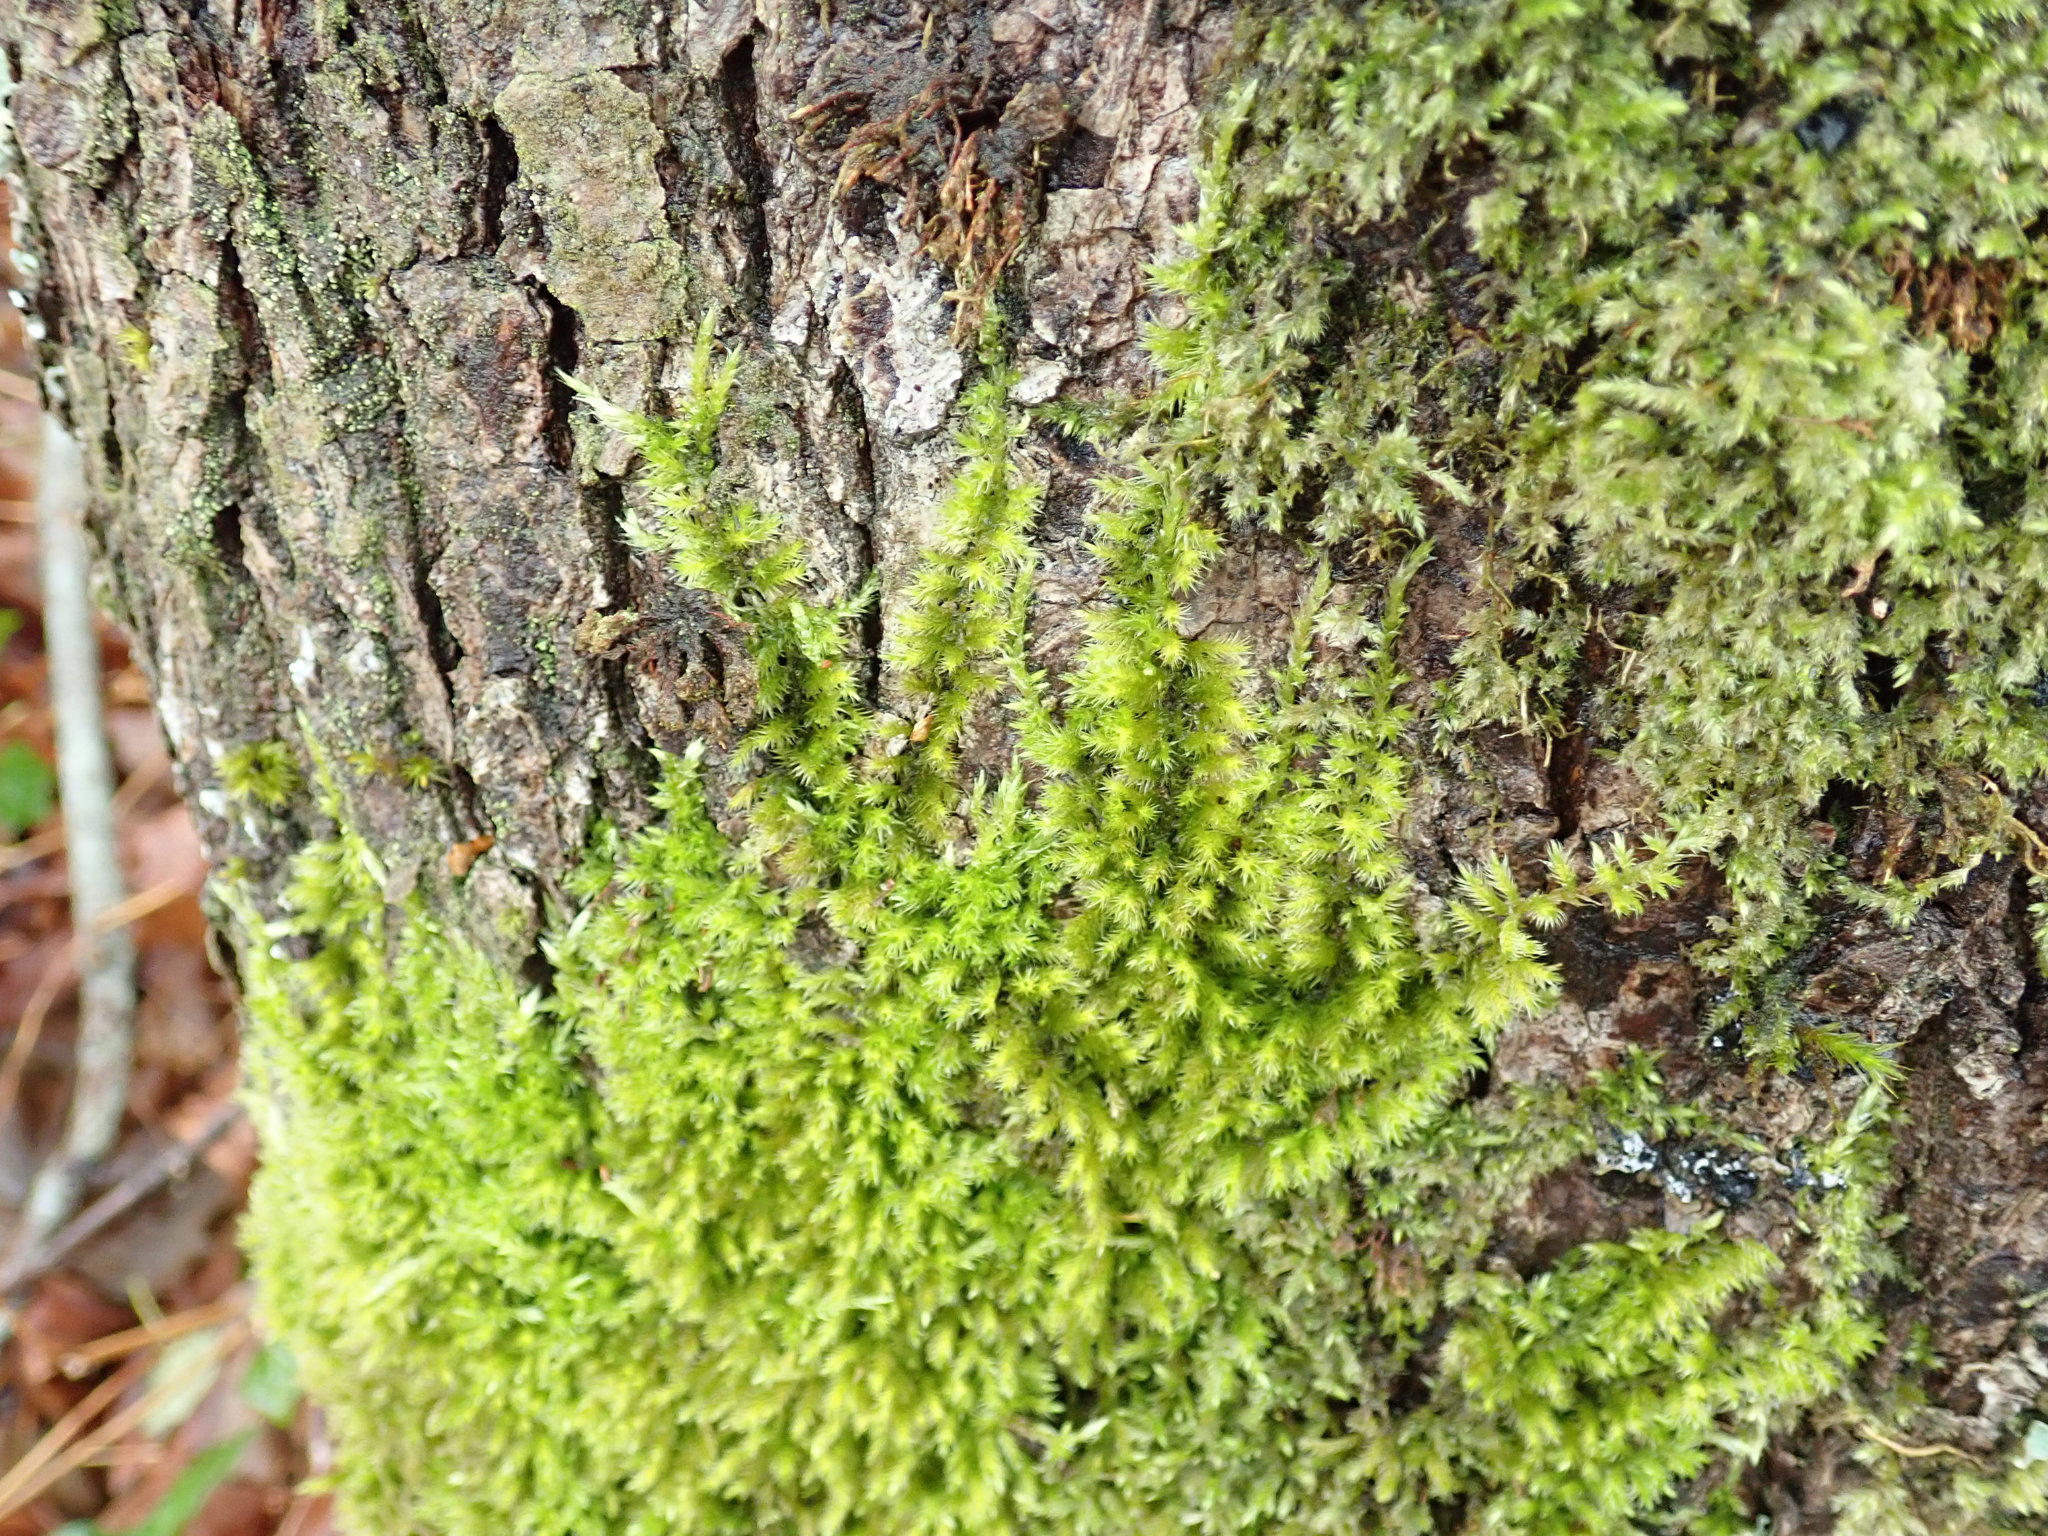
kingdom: Plantae
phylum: Bryophyta
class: Bryopsida
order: Hypnales
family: Brachytheciaceae
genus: Homalothecium
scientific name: Homalothecium nuttallii
